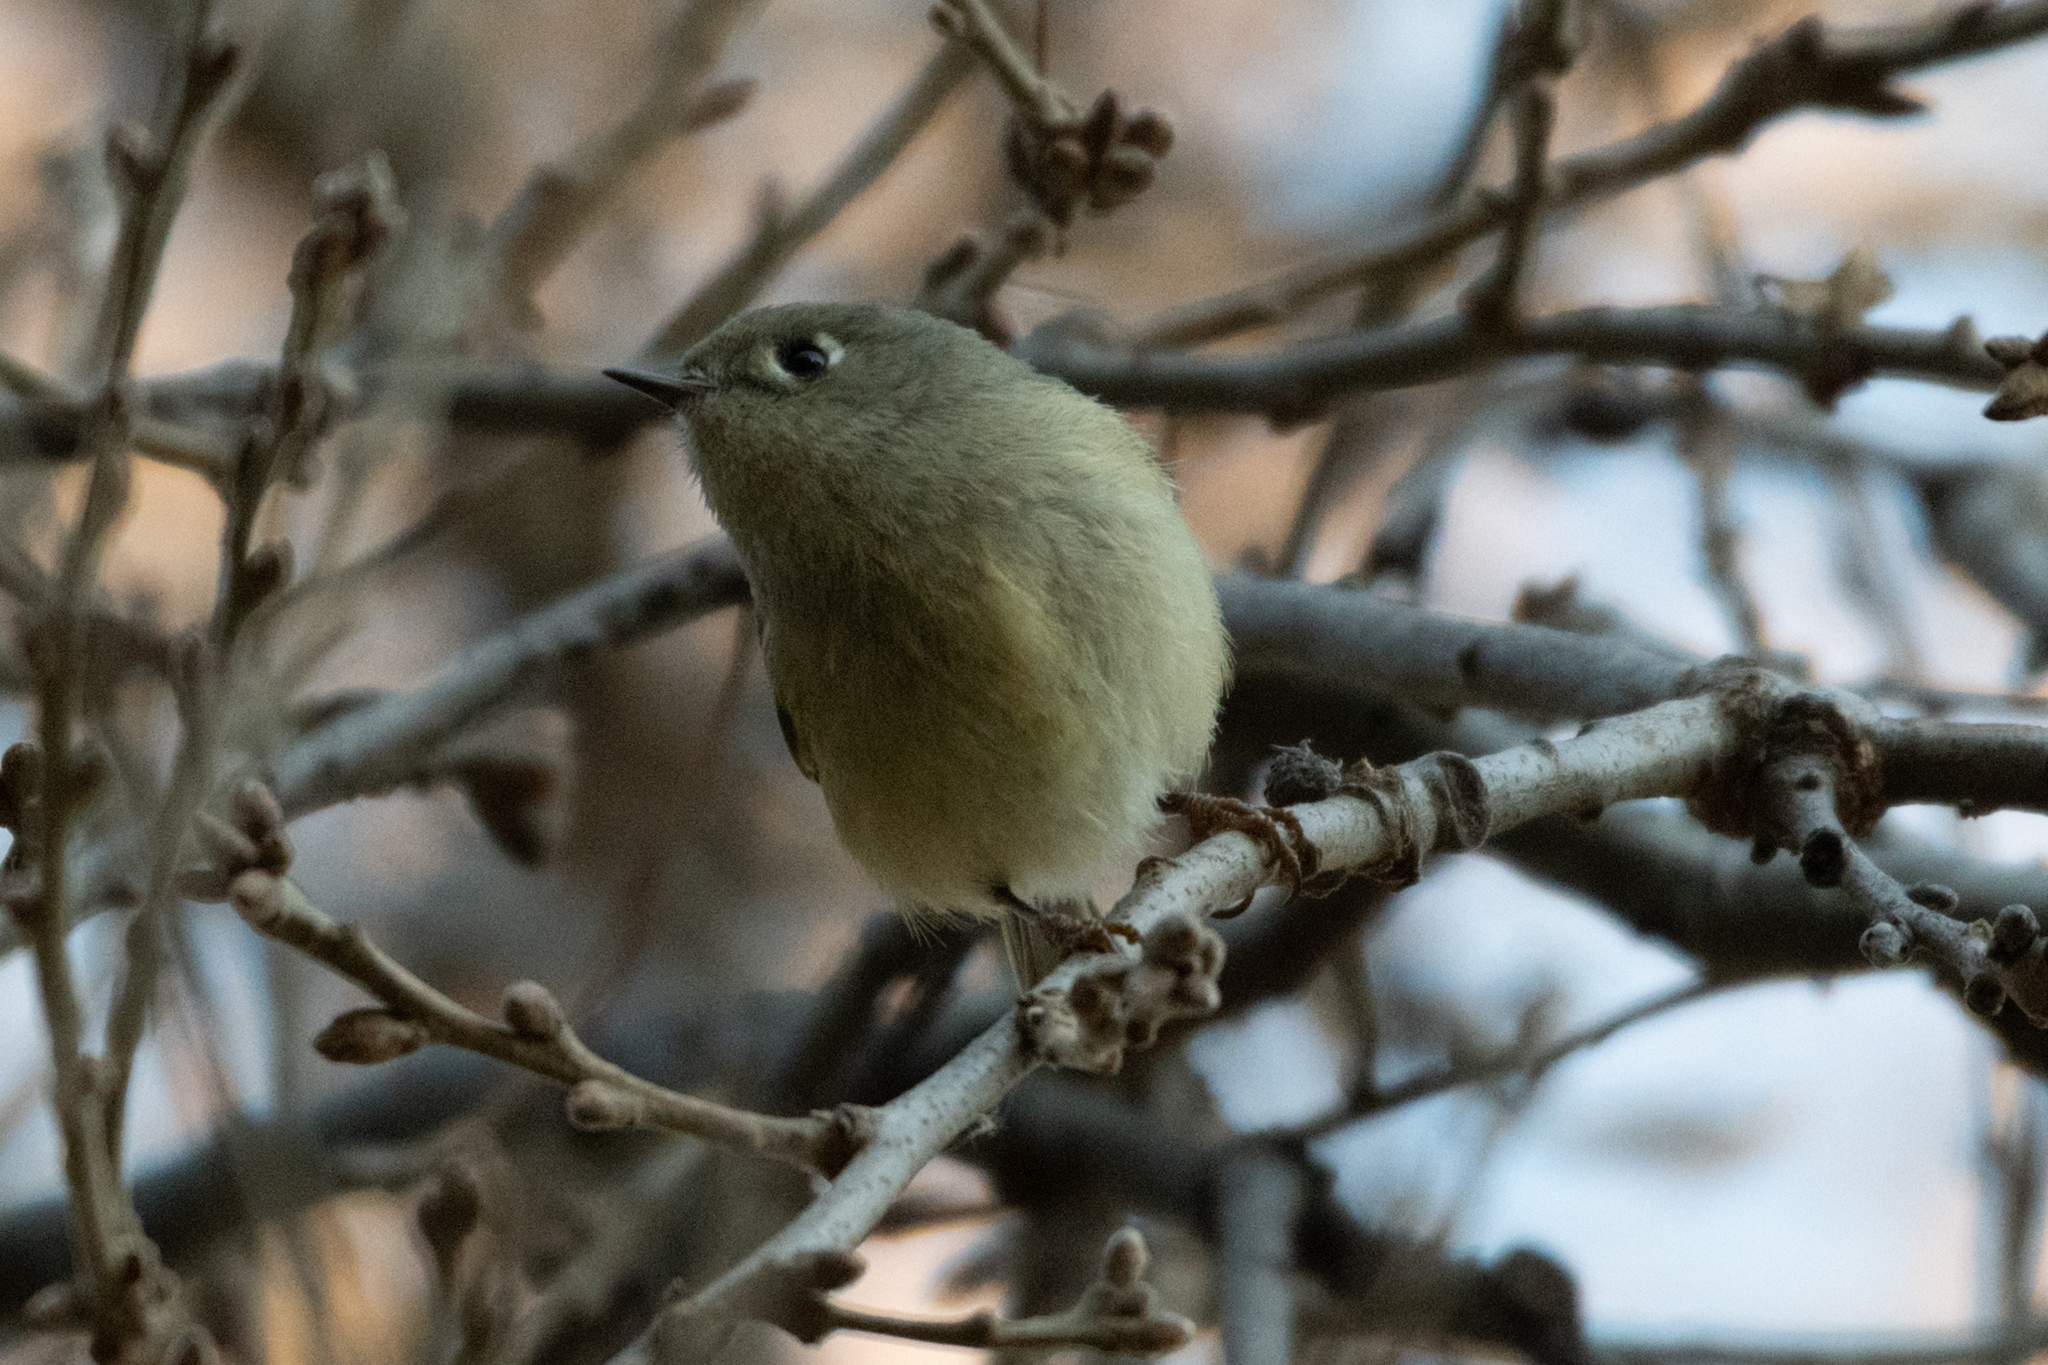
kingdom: Animalia
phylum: Chordata
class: Aves
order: Passeriformes
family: Regulidae
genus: Regulus
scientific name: Regulus calendula
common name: Ruby-crowned kinglet
